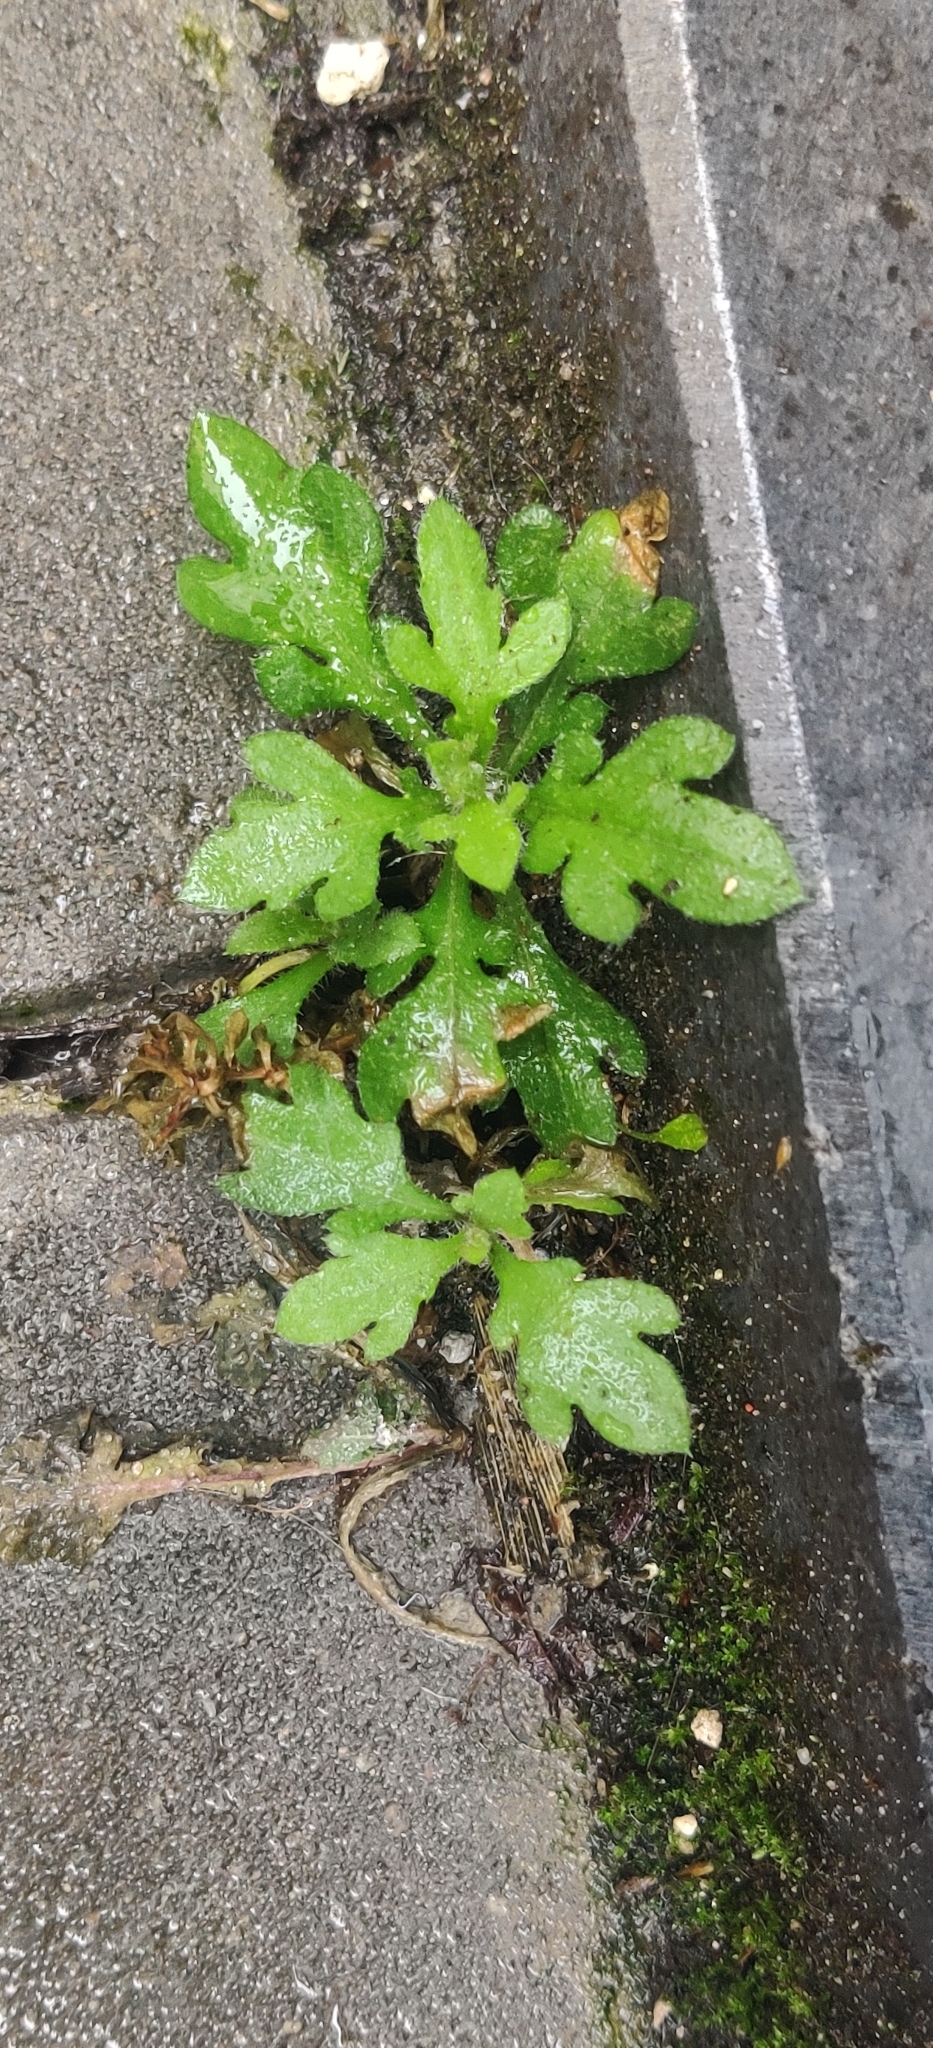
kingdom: Plantae
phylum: Tracheophyta
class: Magnoliopsida
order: Asterales
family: Asteraceae
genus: Erigeron
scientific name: Erigeron karvinskianus
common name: Mexican fleabane
